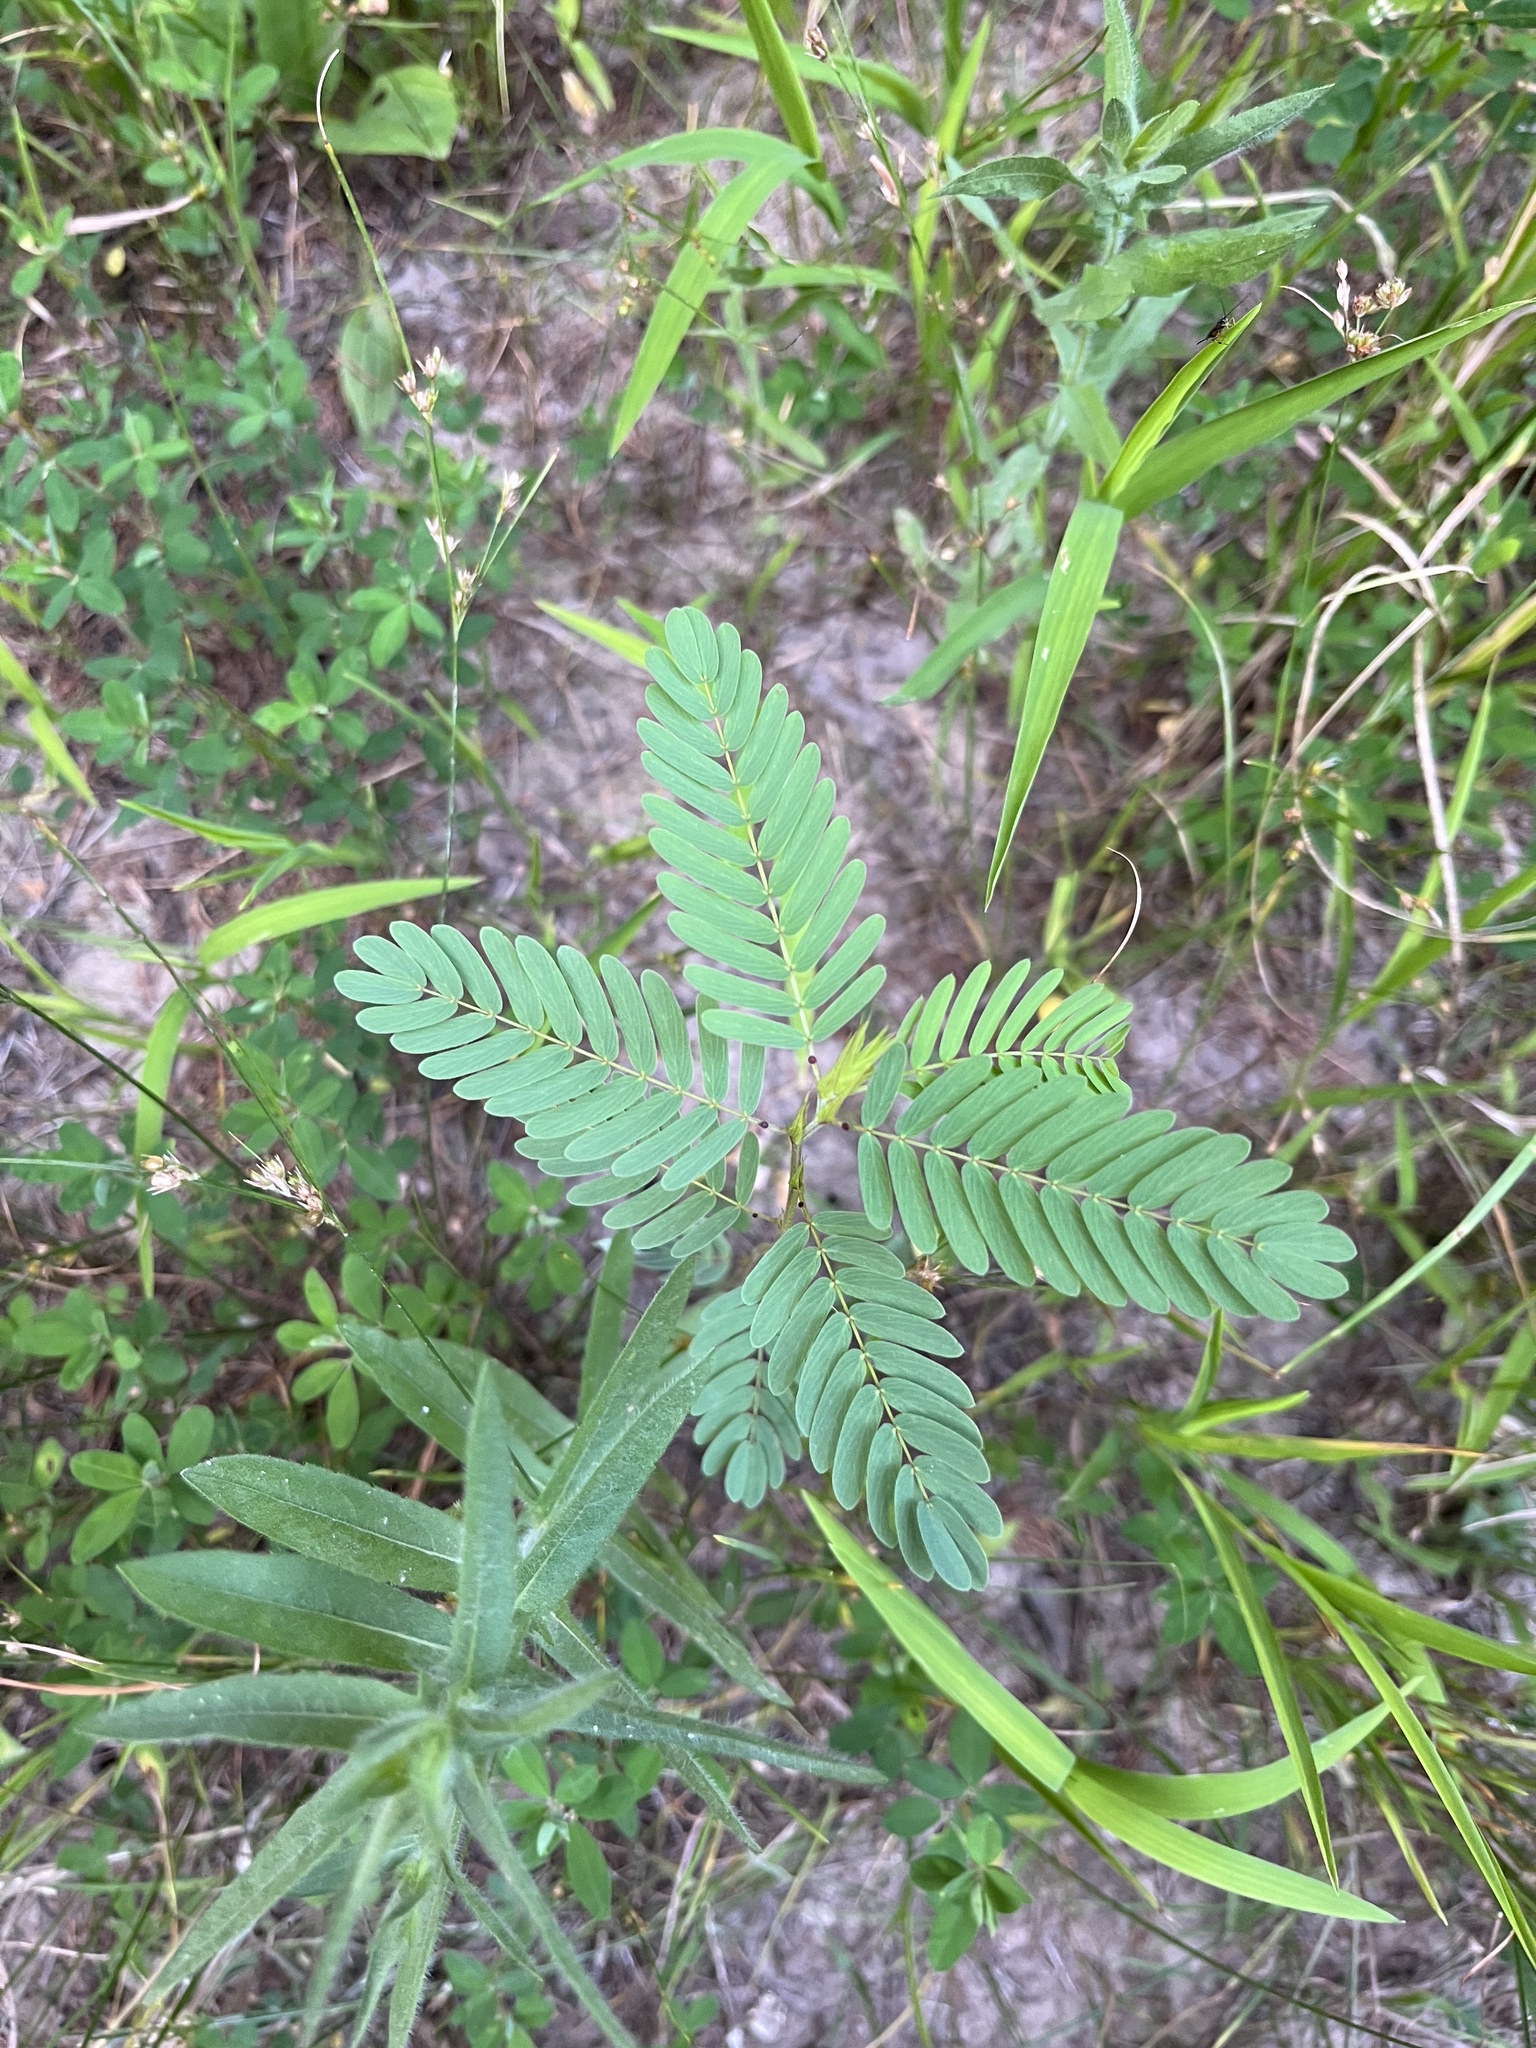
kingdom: Plantae
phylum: Tracheophyta
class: Magnoliopsida
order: Fabales
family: Fabaceae
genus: Chamaecrista
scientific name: Chamaecrista fasciculata
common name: Golden cassia
